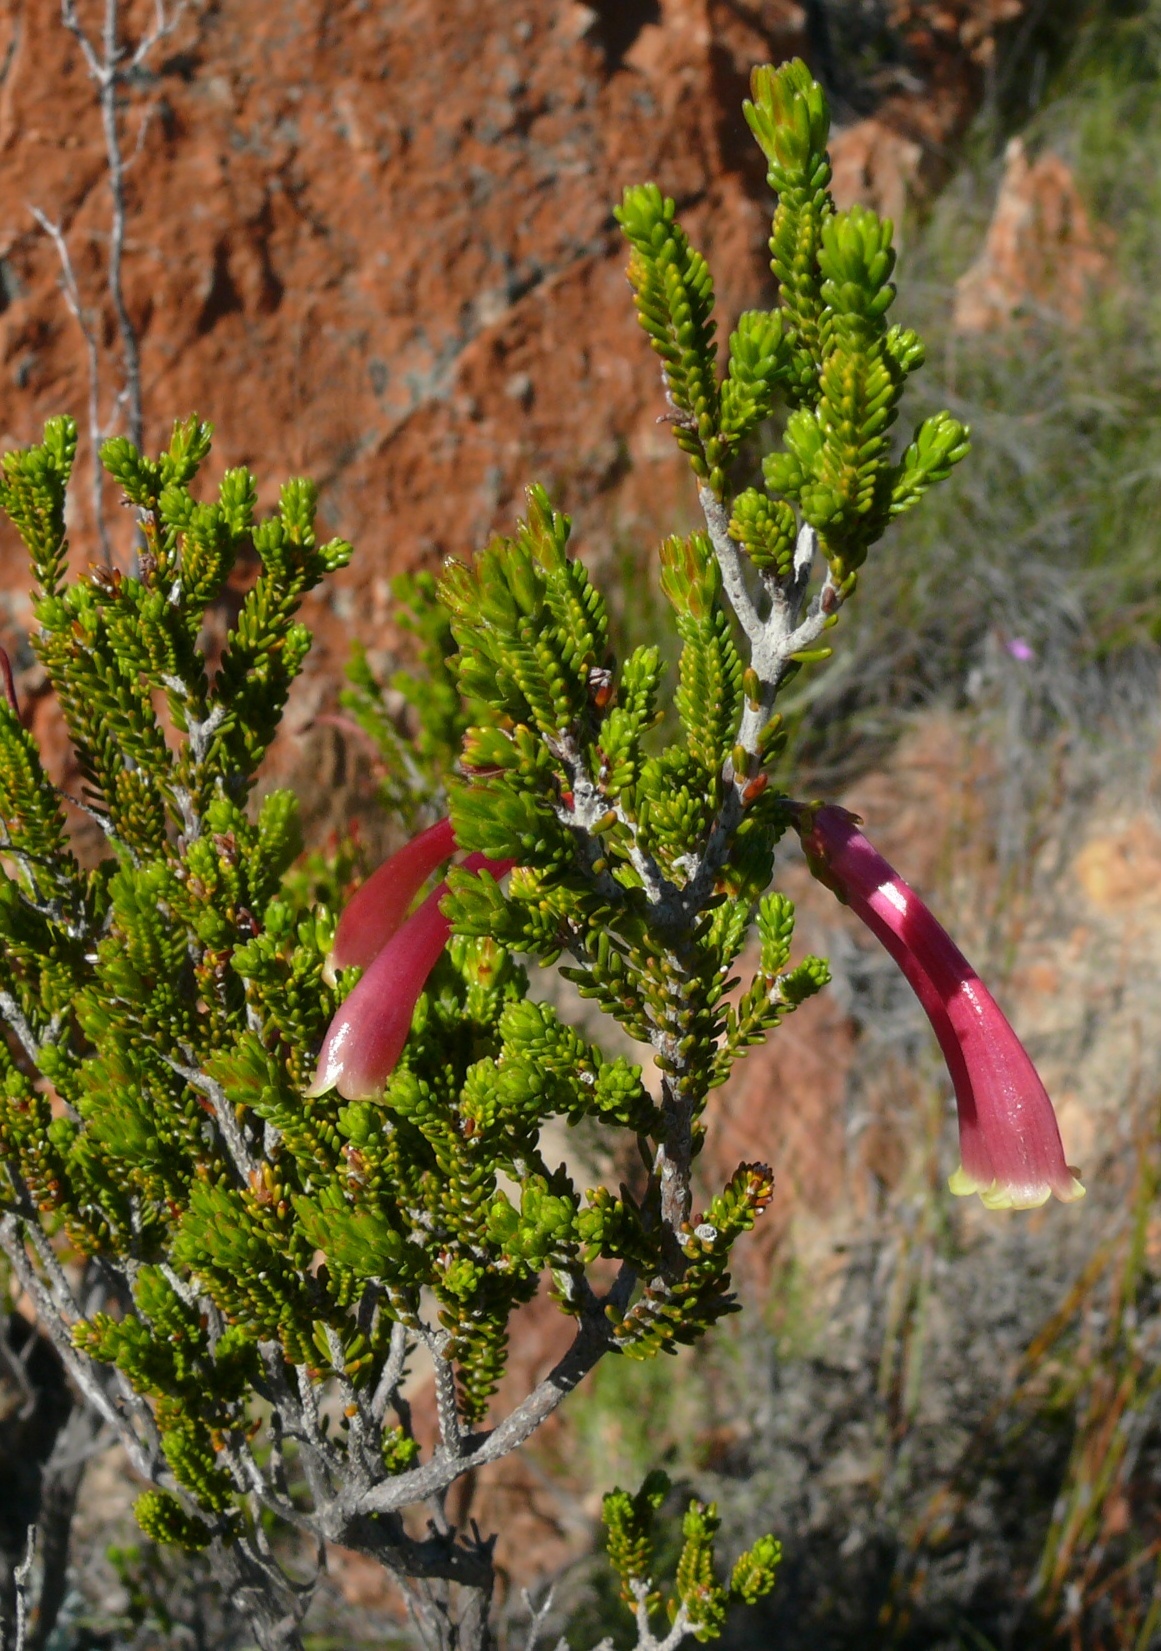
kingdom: Plantae
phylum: Tracheophyta
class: Magnoliopsida
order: Ericales
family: Ericaceae
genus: Erica
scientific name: Erica discolor
